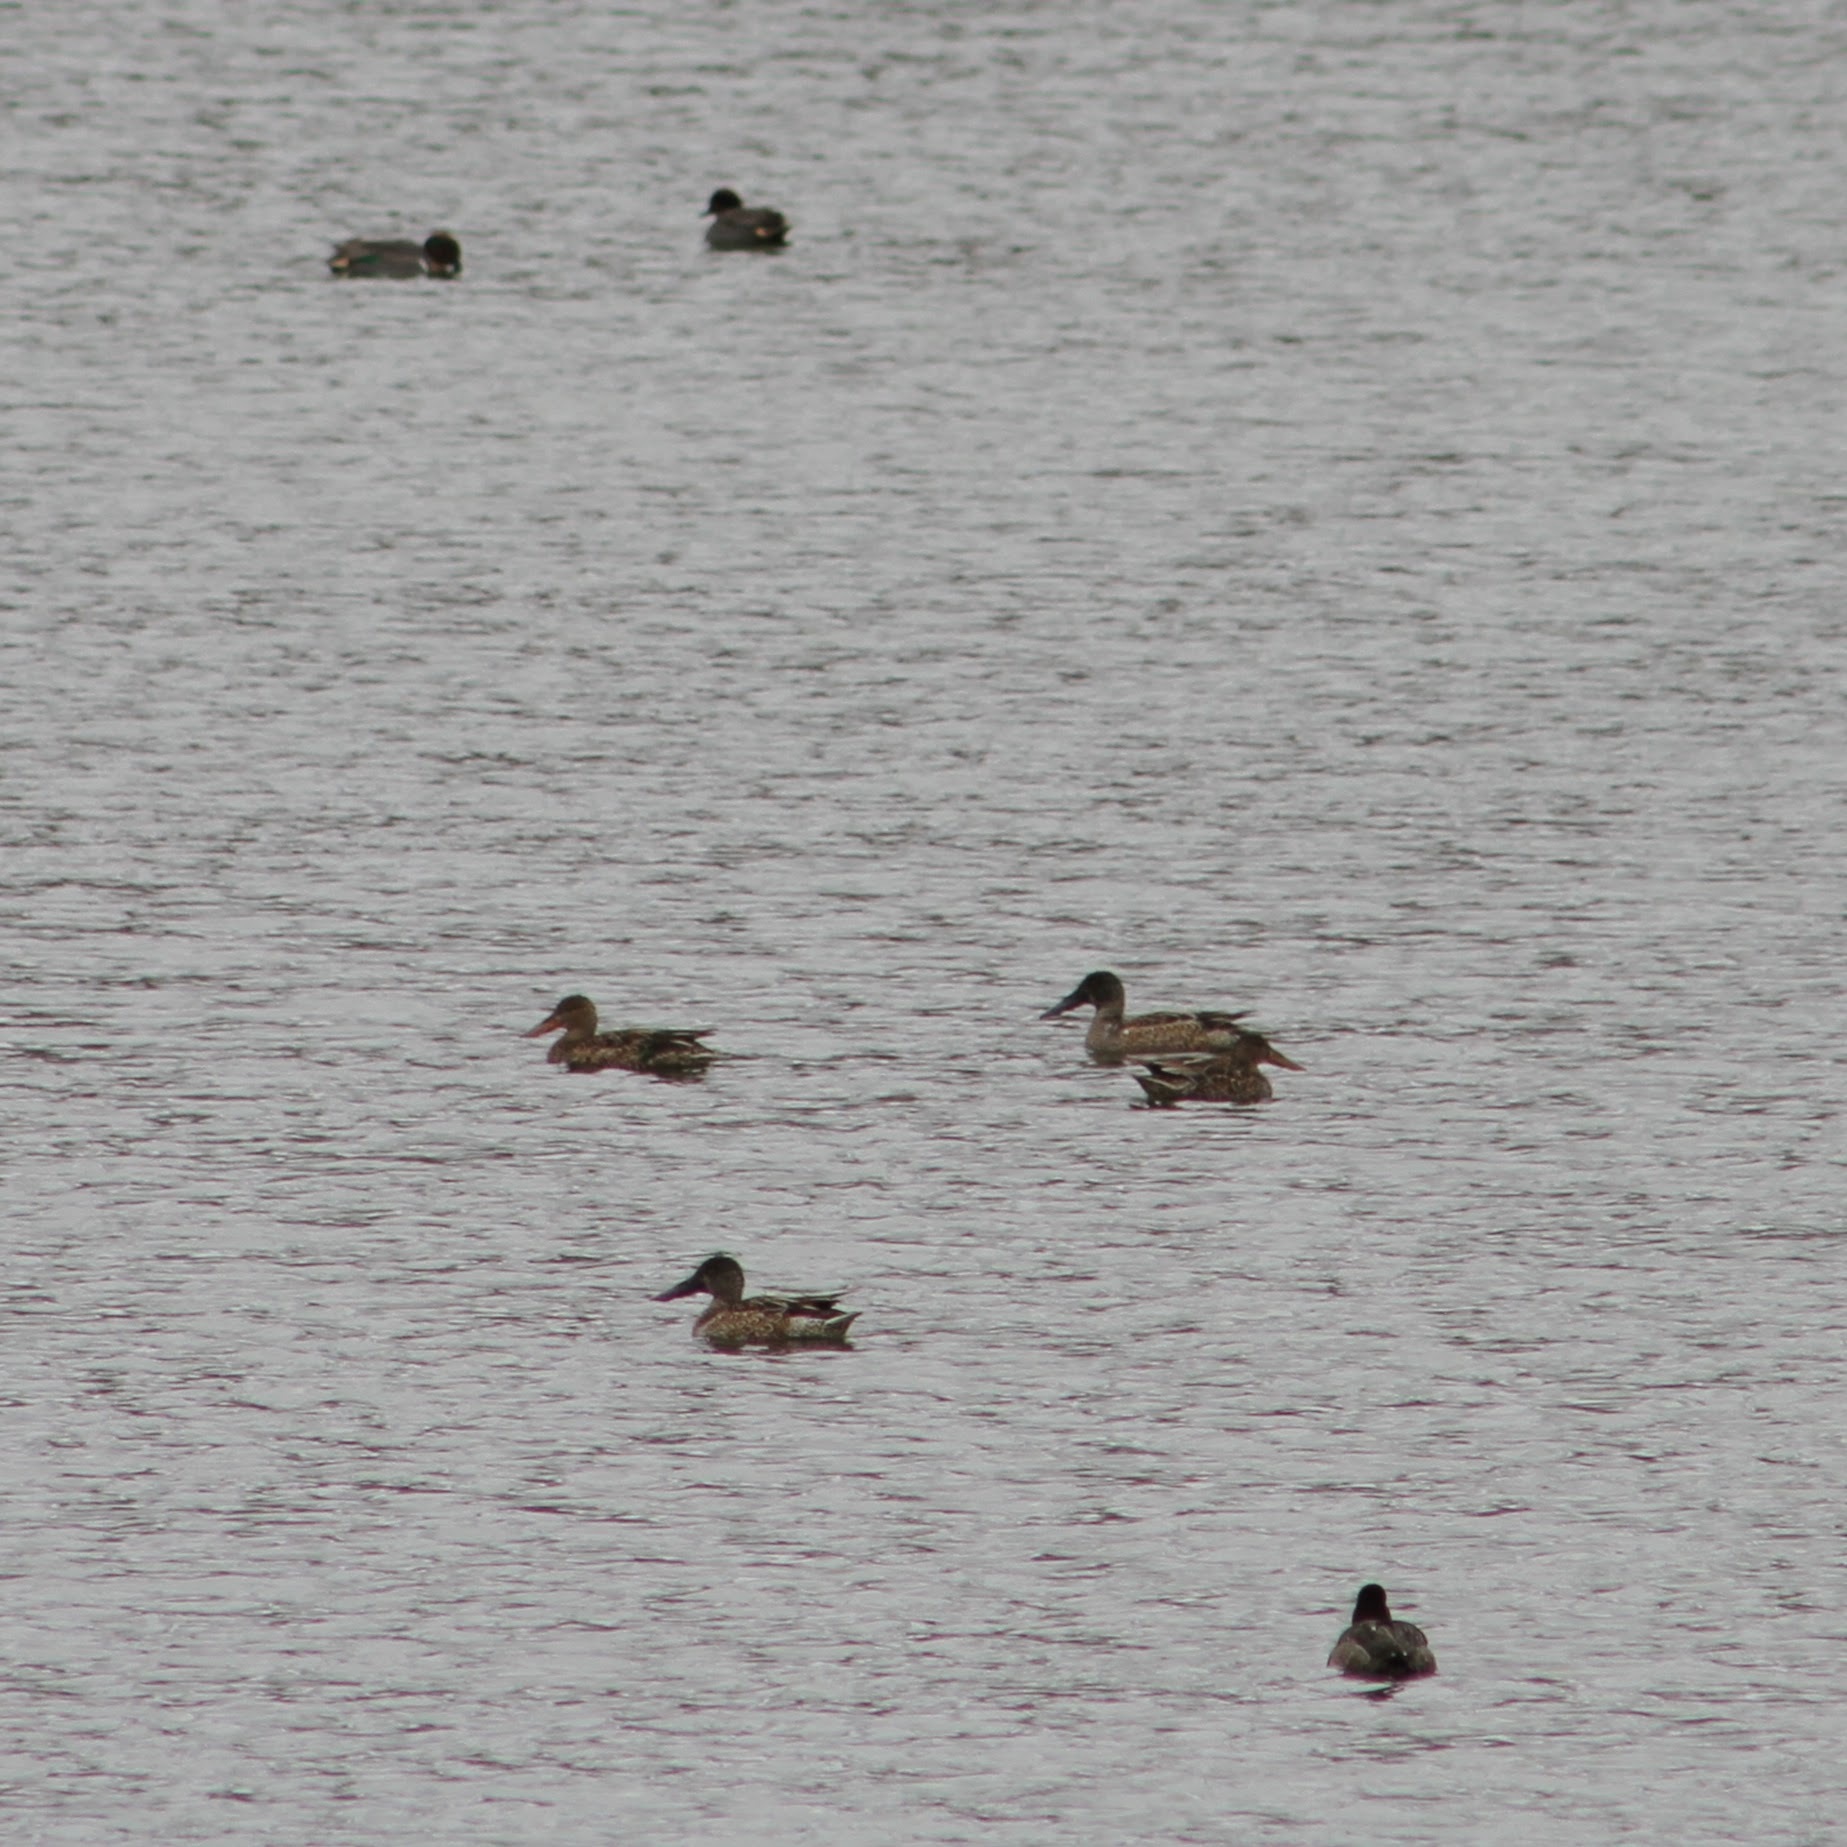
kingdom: Animalia
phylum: Chordata
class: Aves
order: Anseriformes
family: Anatidae
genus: Spatula
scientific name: Spatula clypeata
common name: Northern shoveler
